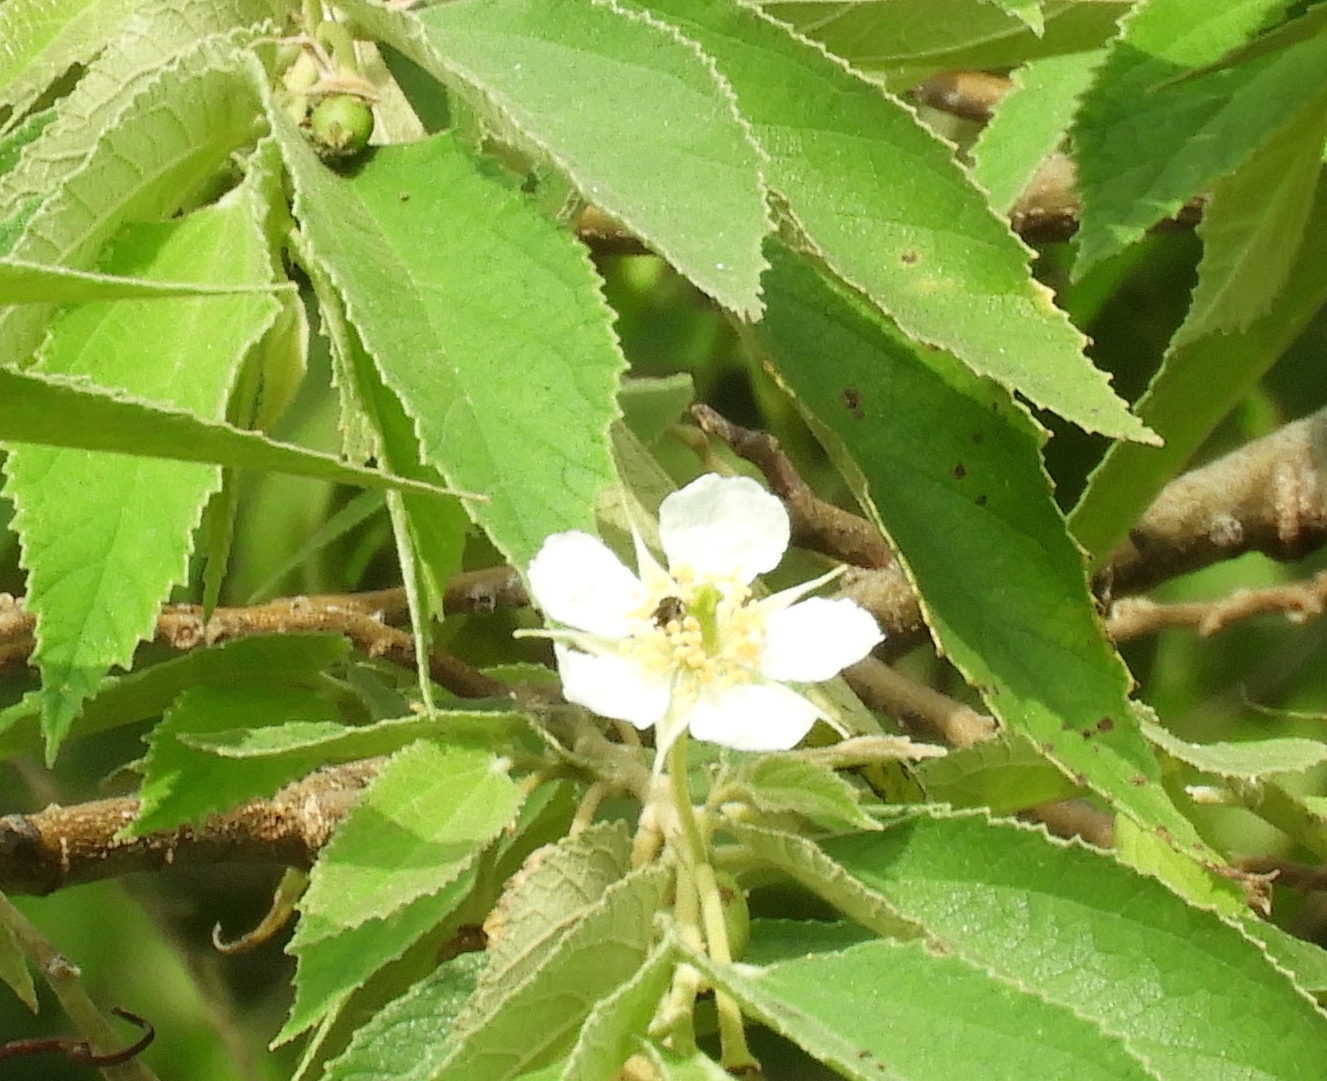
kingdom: Plantae
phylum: Tracheophyta
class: Magnoliopsida
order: Malvales
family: Muntingiaceae
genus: Muntingia
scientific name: Muntingia calabura
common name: Strawberrytree
